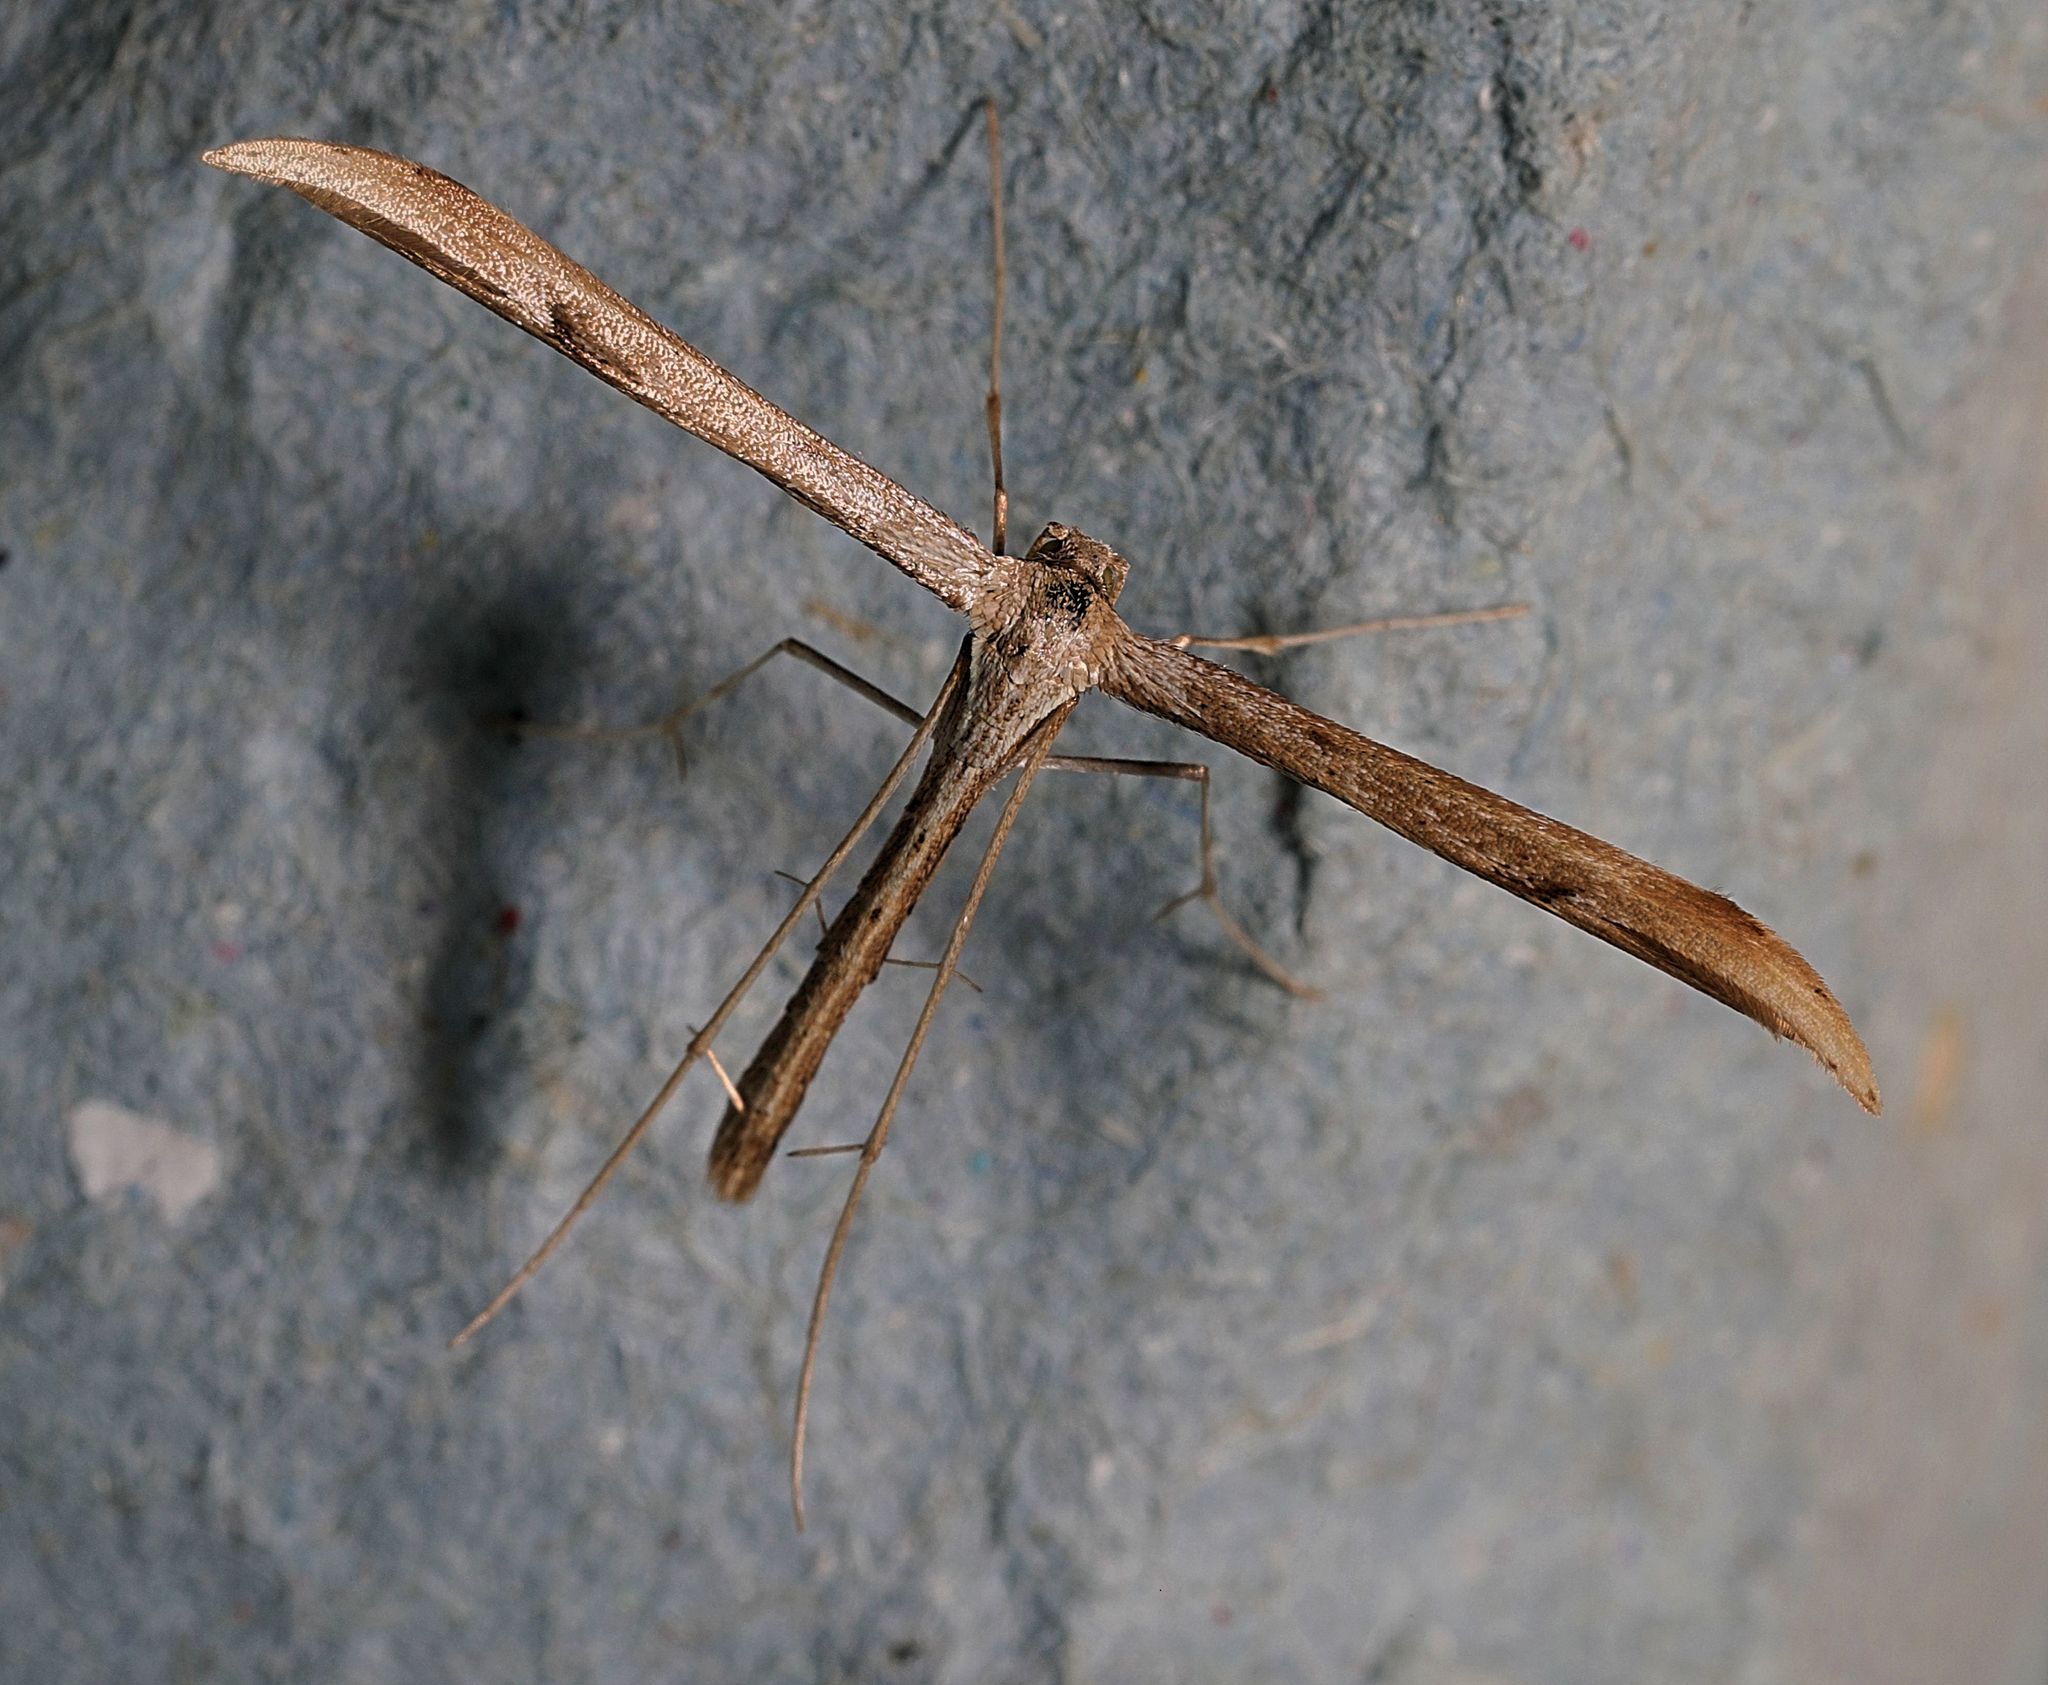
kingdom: Animalia
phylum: Arthropoda
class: Insecta
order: Lepidoptera
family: Pterophoridae
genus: Emmelina
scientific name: Emmelina monodactyla
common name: Common plume
